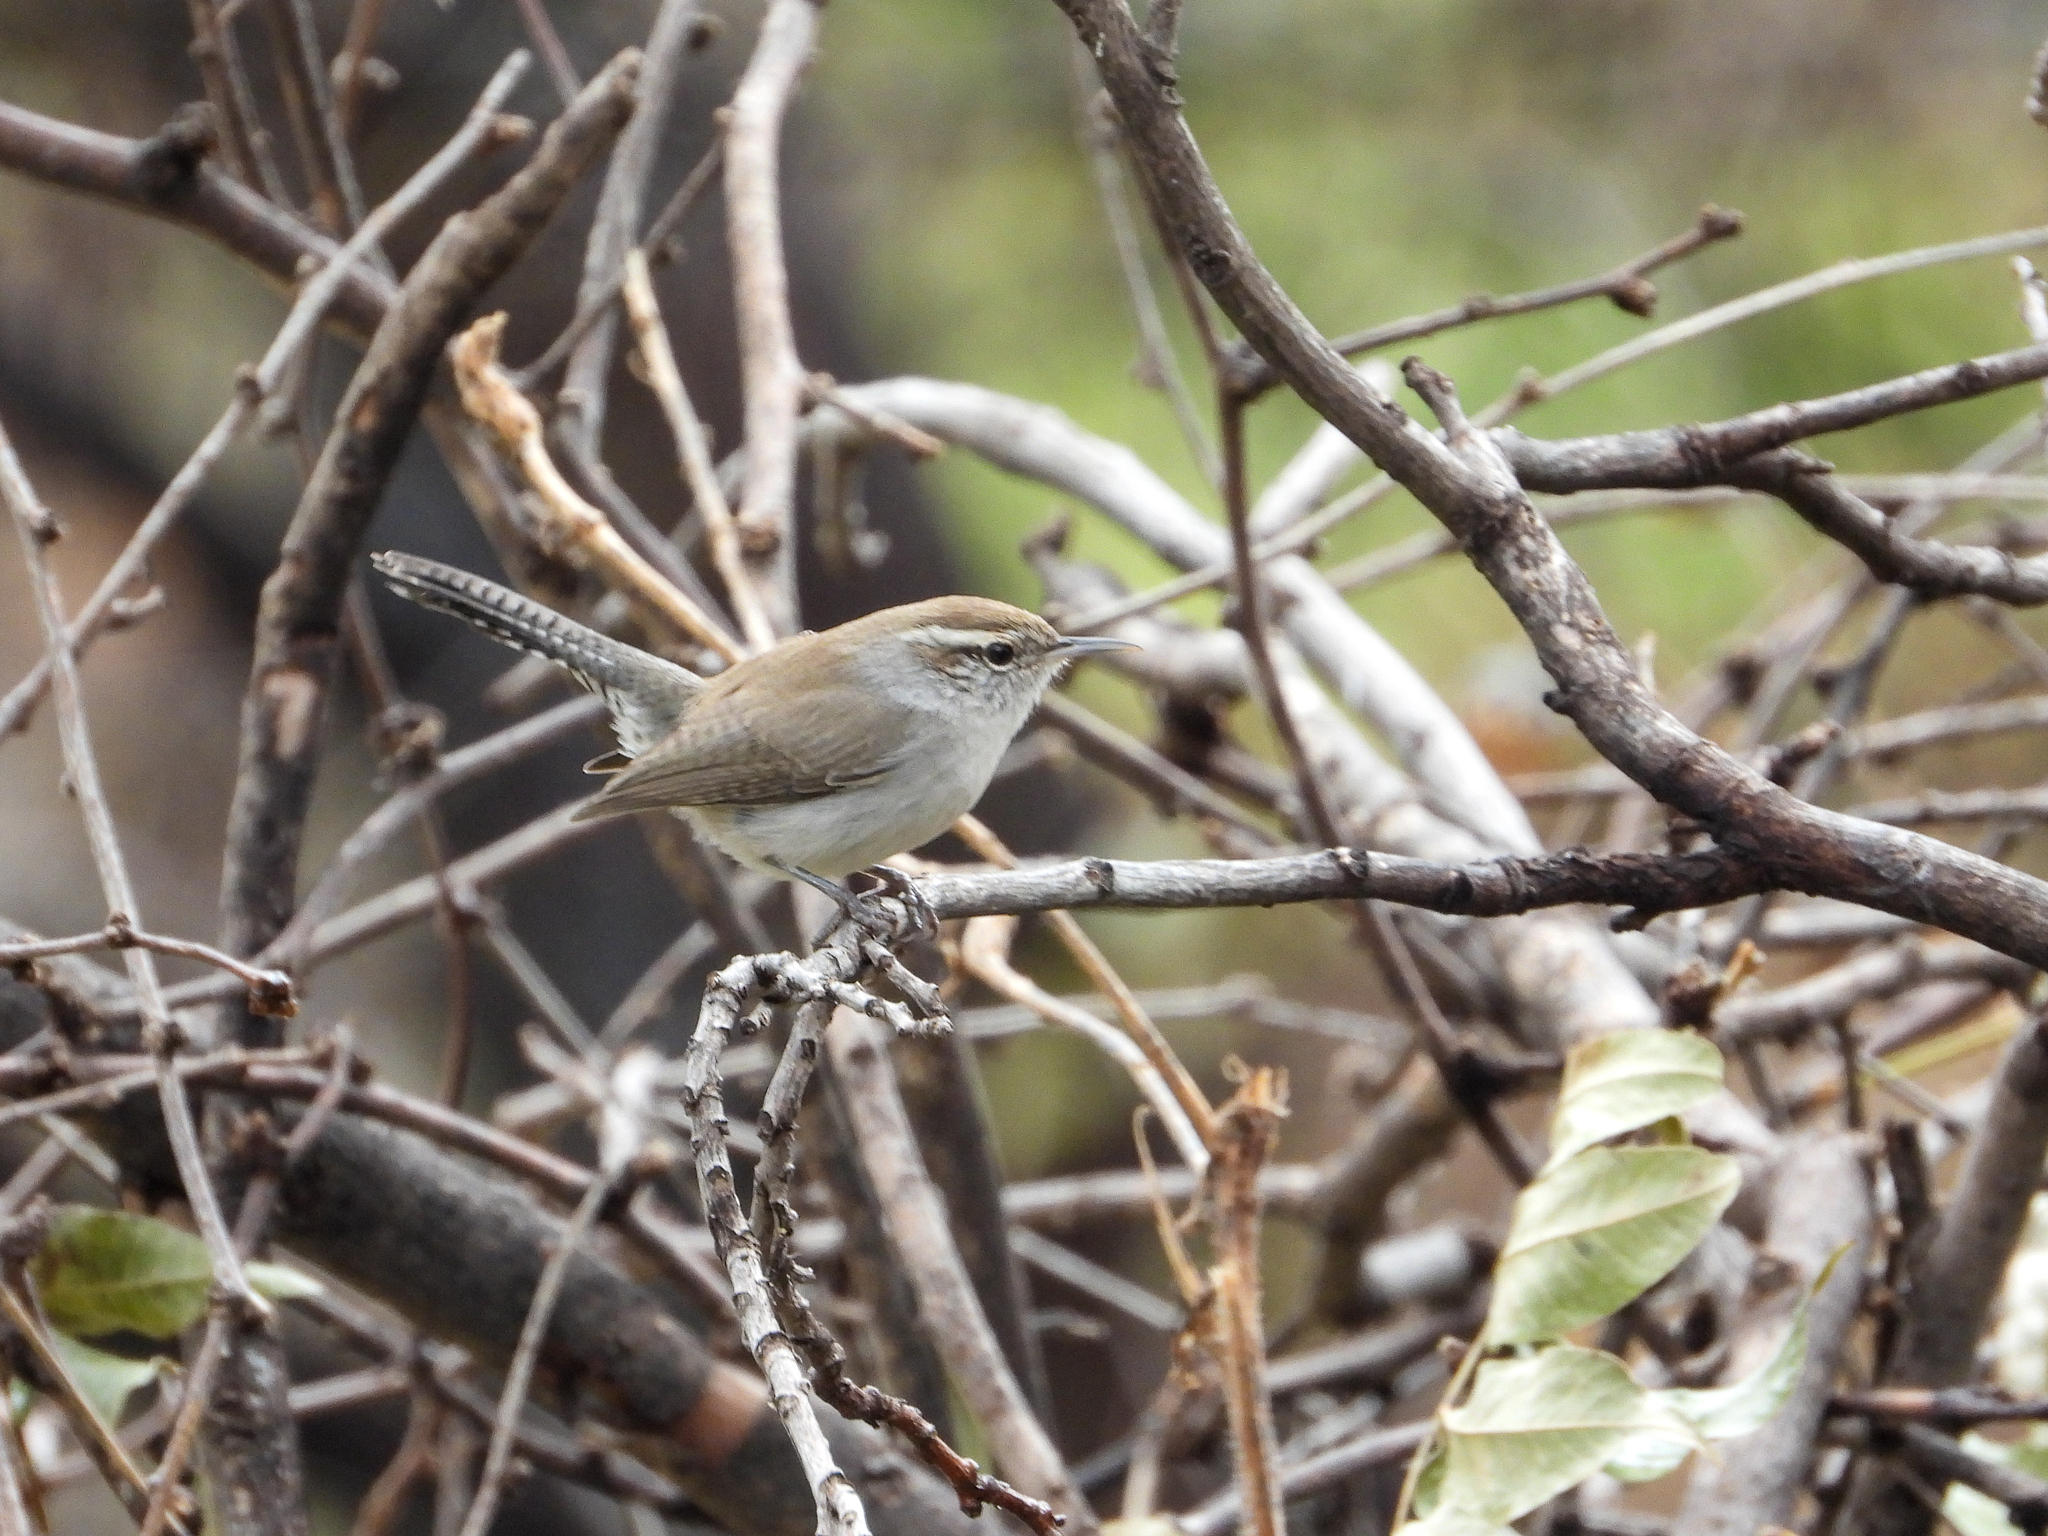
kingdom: Animalia
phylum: Chordata
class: Aves
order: Passeriformes
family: Troglodytidae
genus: Thryomanes
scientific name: Thryomanes bewickii
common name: Bewick's wren
